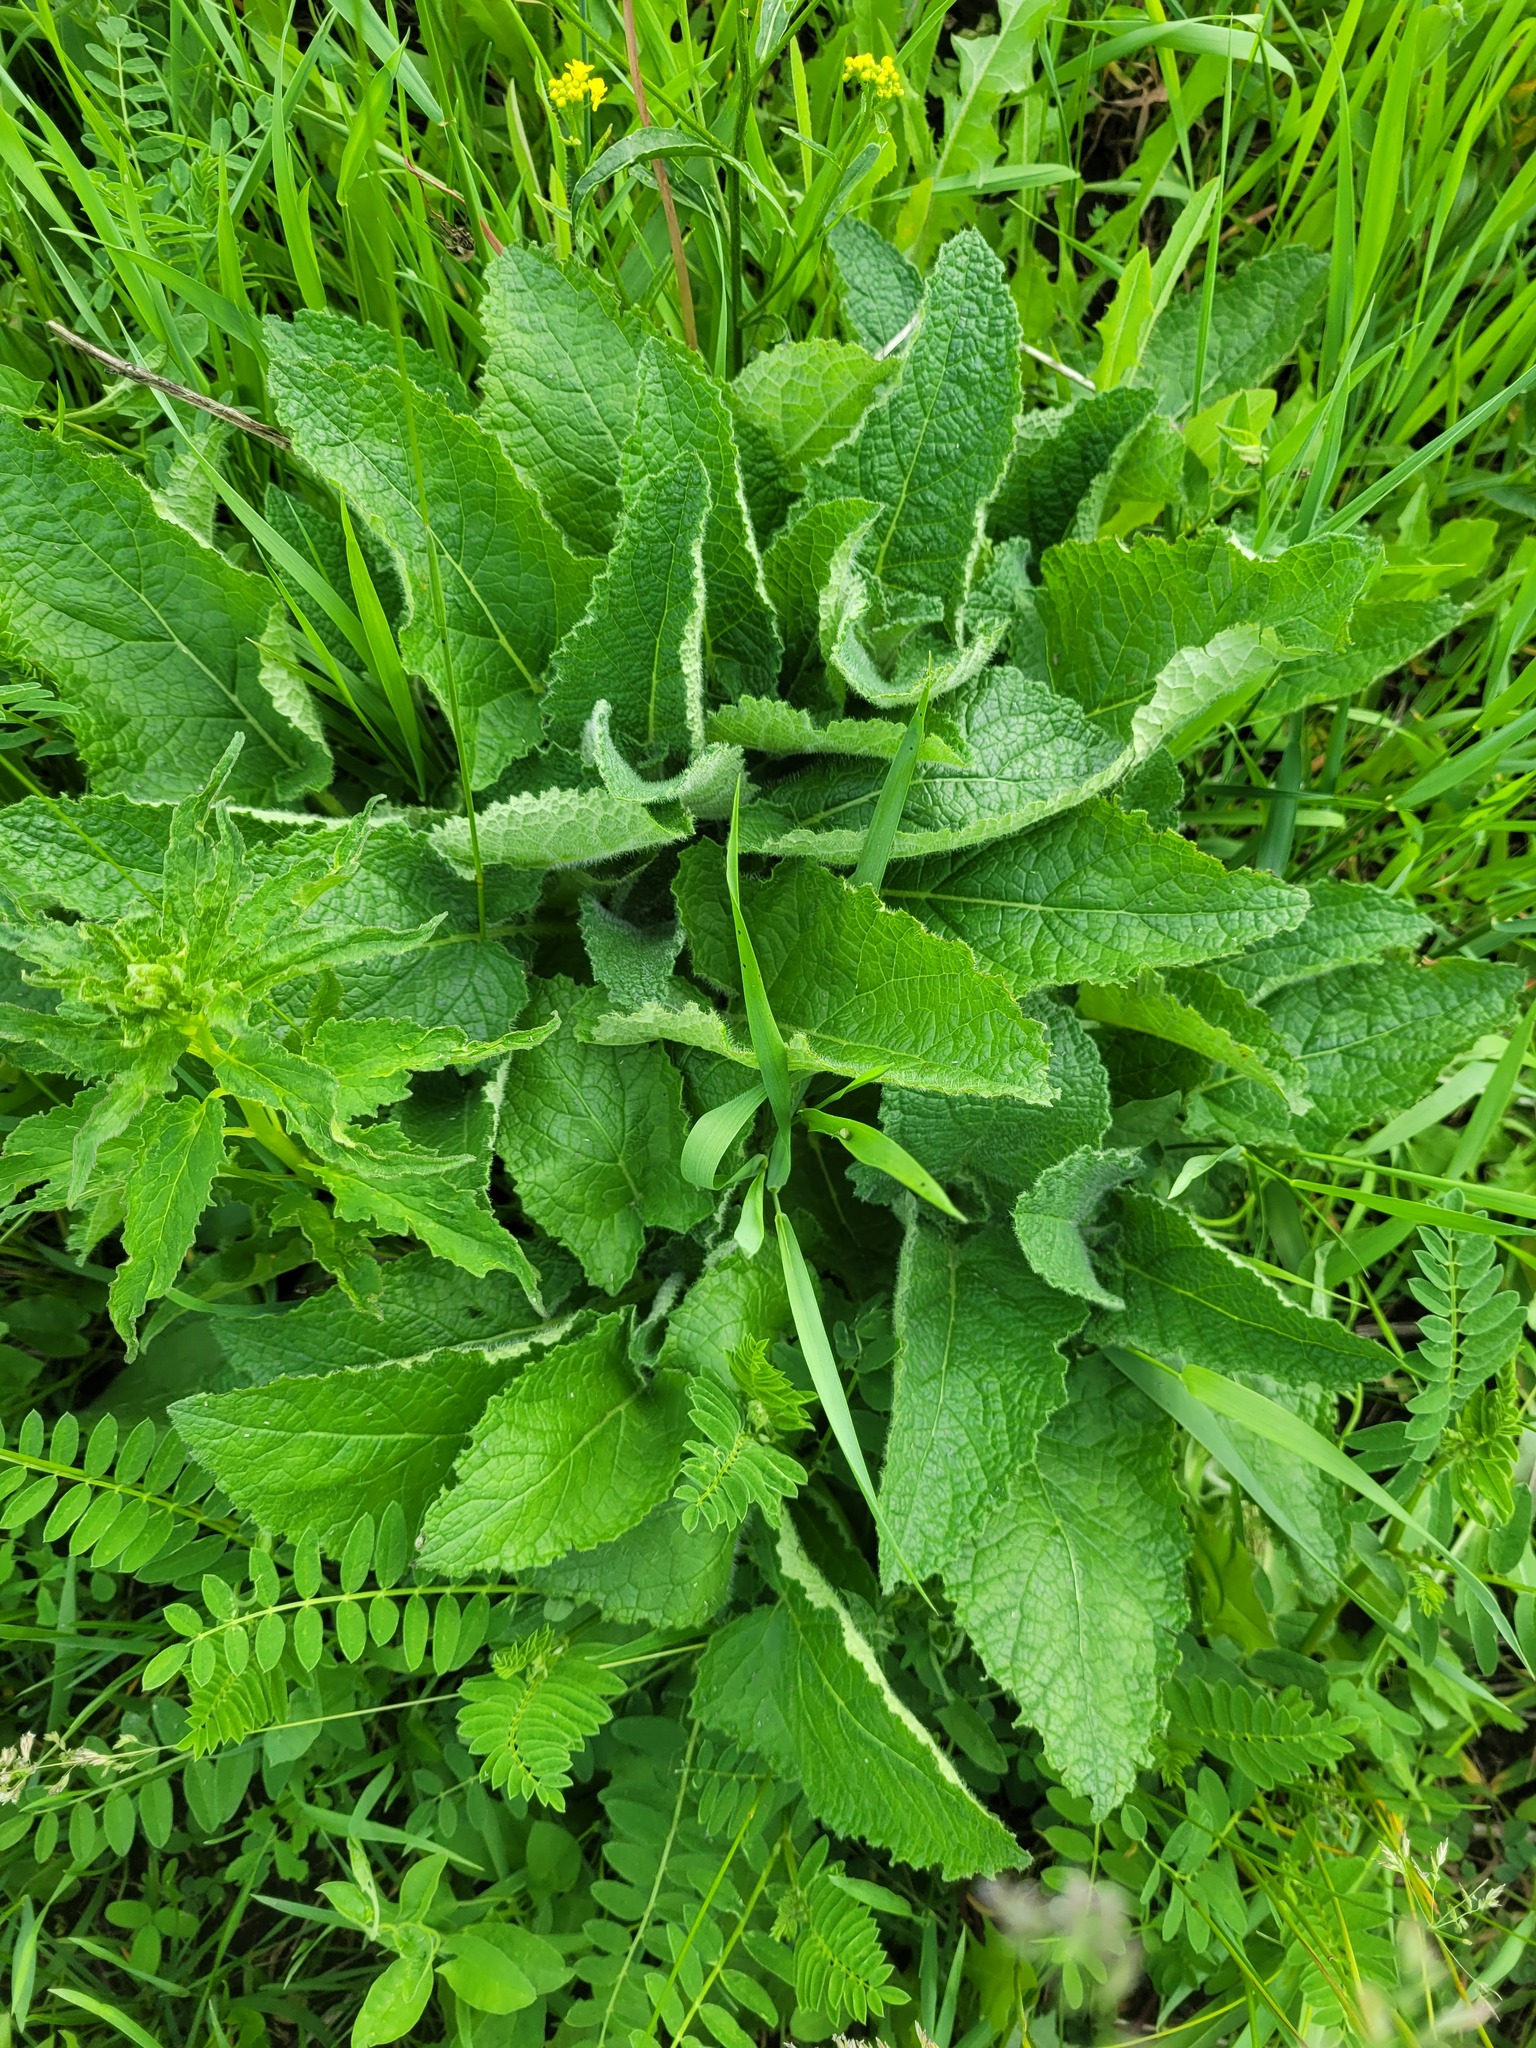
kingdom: Plantae
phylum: Tracheophyta
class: Magnoliopsida
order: Lamiales
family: Lamiaceae
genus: Salvia
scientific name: Salvia verticillata
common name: Whorled clary
